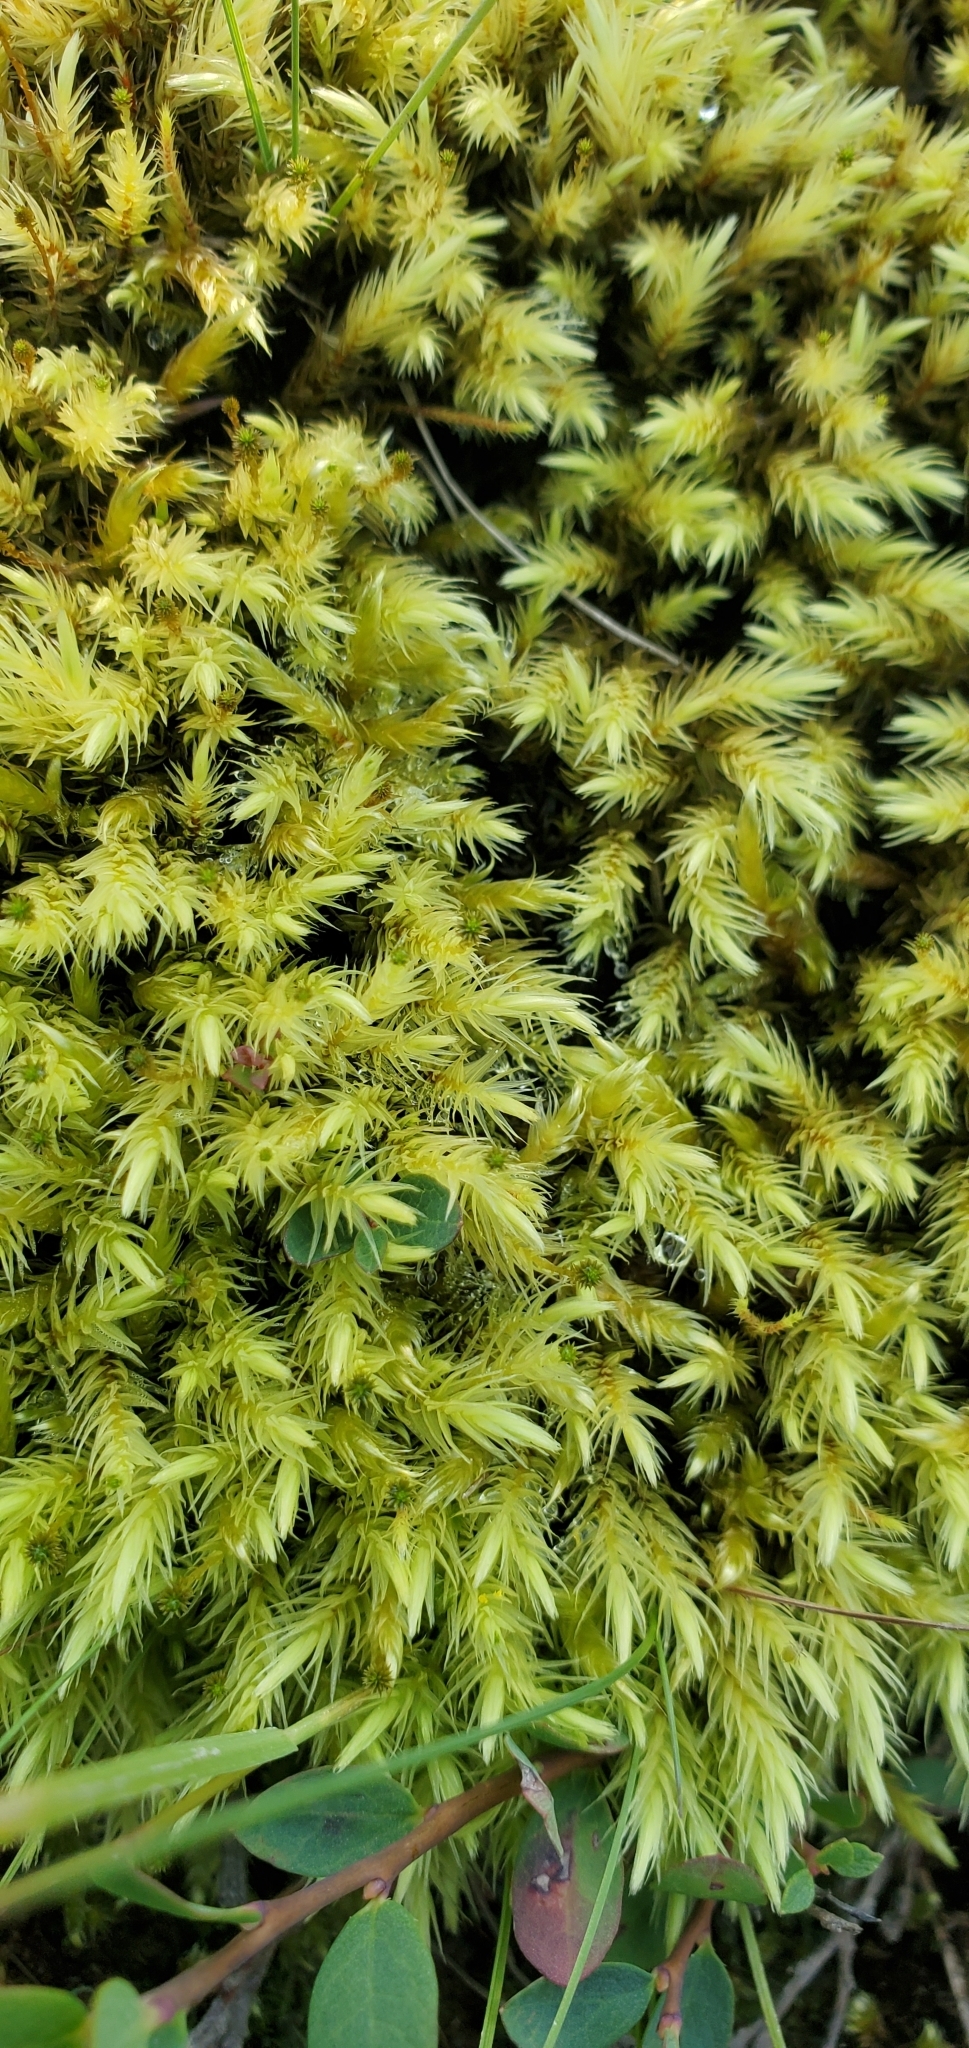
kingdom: Plantae
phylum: Bryophyta
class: Bryopsida
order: Aulacomniales
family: Aulacomniaceae
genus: Aulacomnium
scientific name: Aulacomnium palustre
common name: Bog groove-moss
